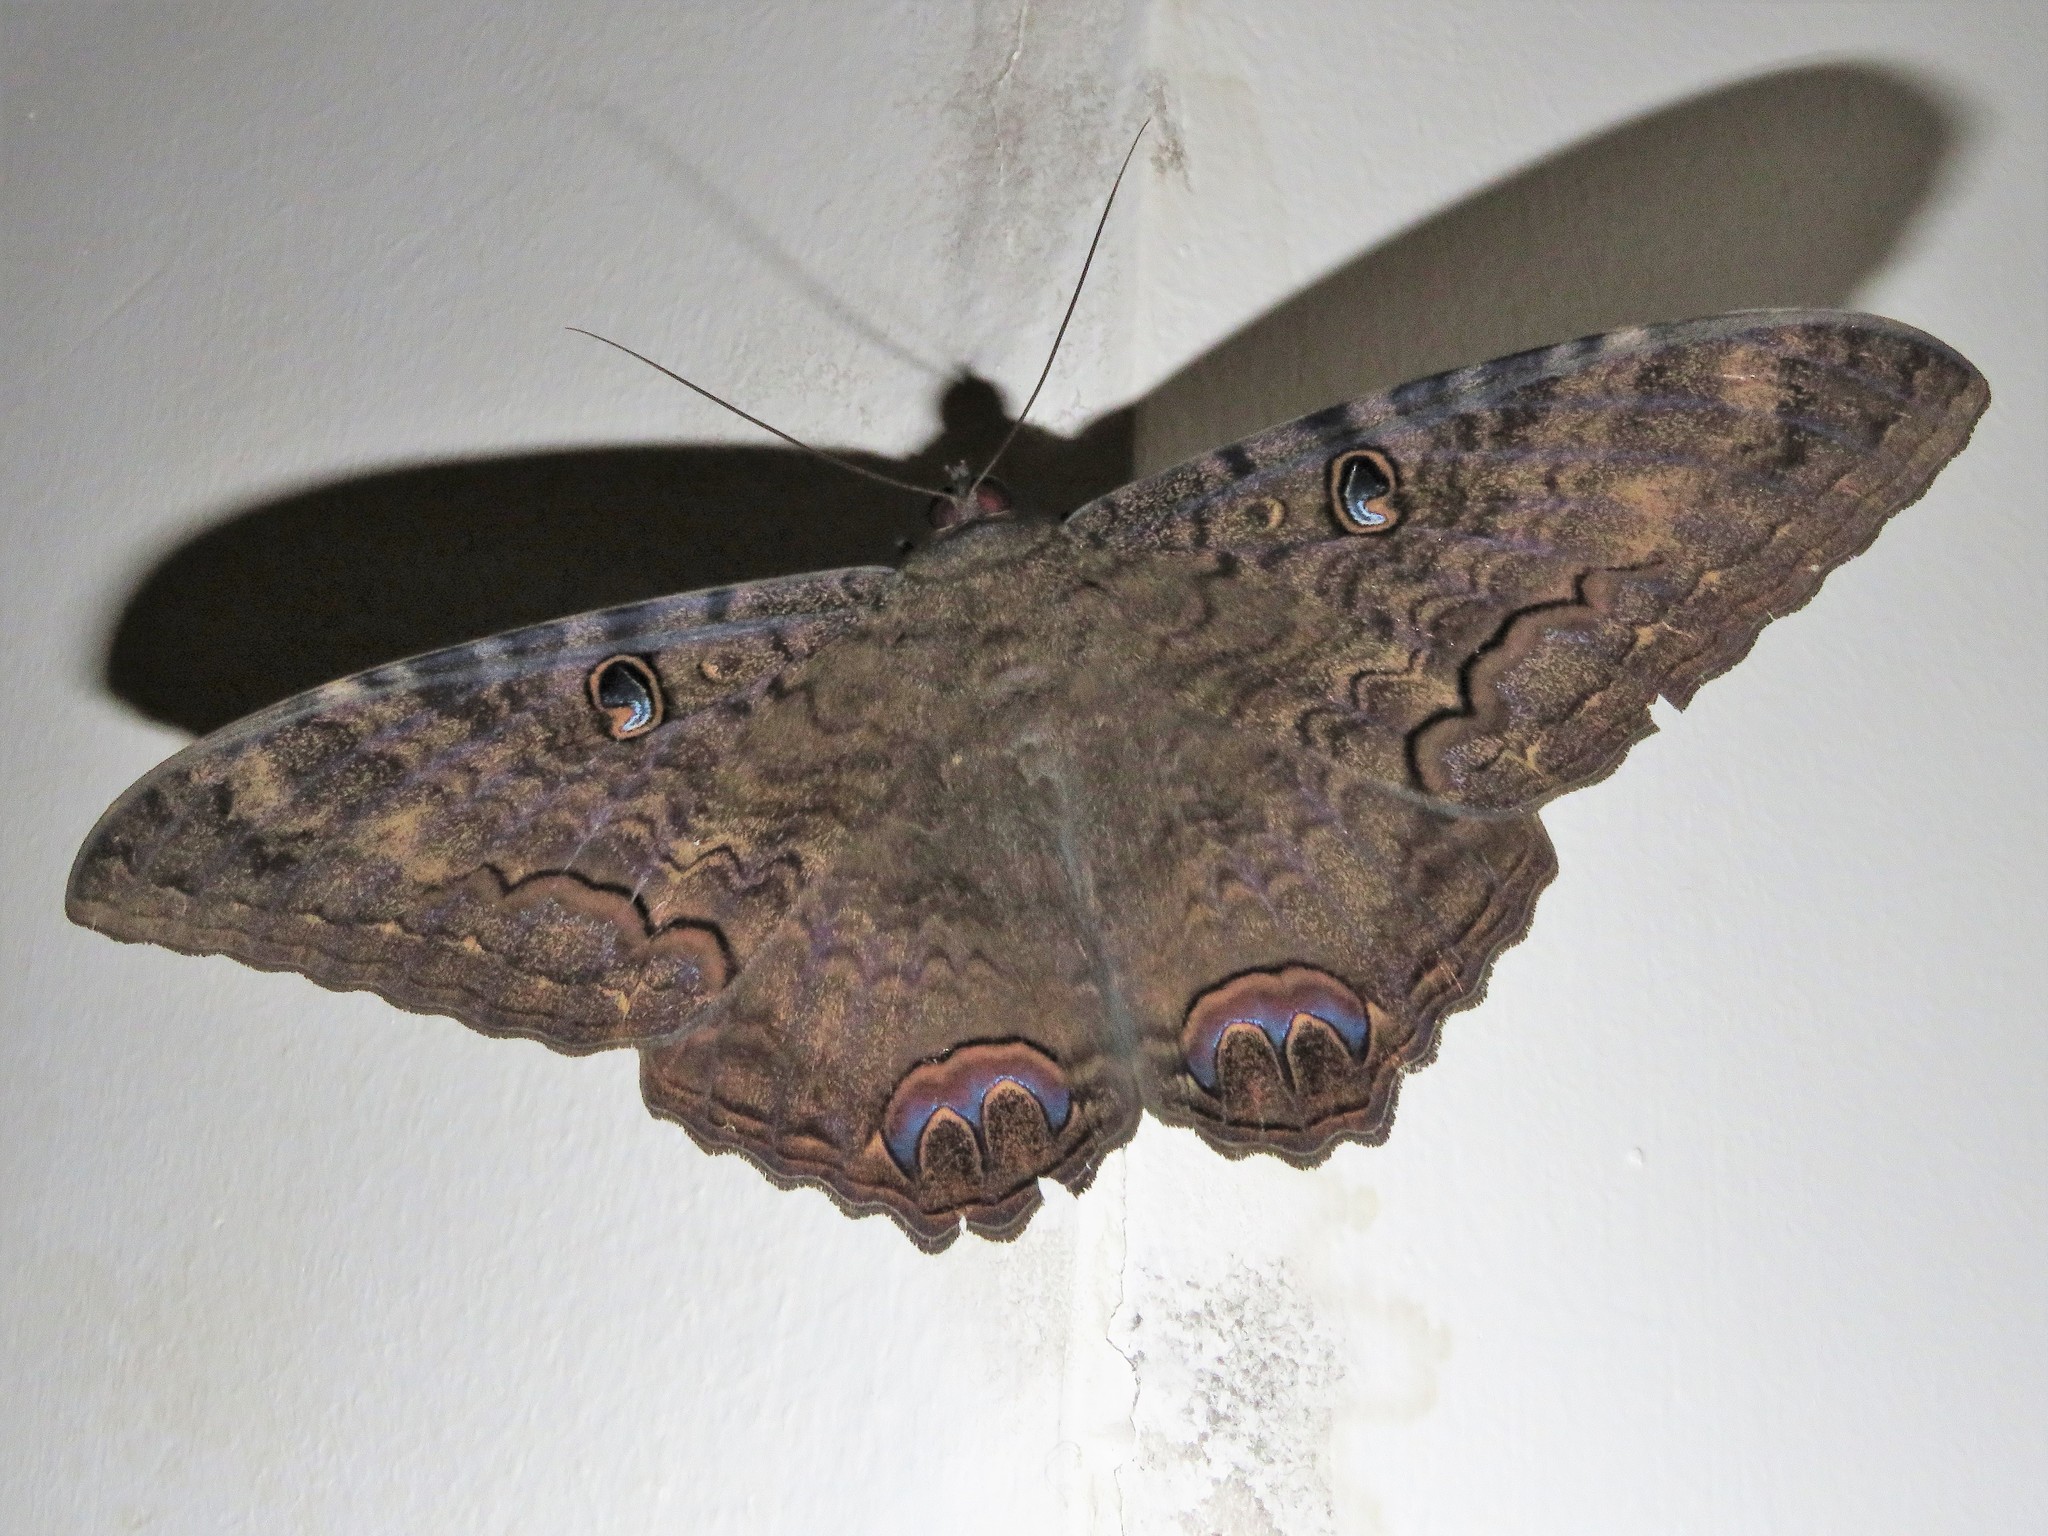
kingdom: Animalia
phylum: Arthropoda
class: Insecta
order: Lepidoptera
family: Erebidae
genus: Ascalapha
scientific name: Ascalapha odorata
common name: Black witch
